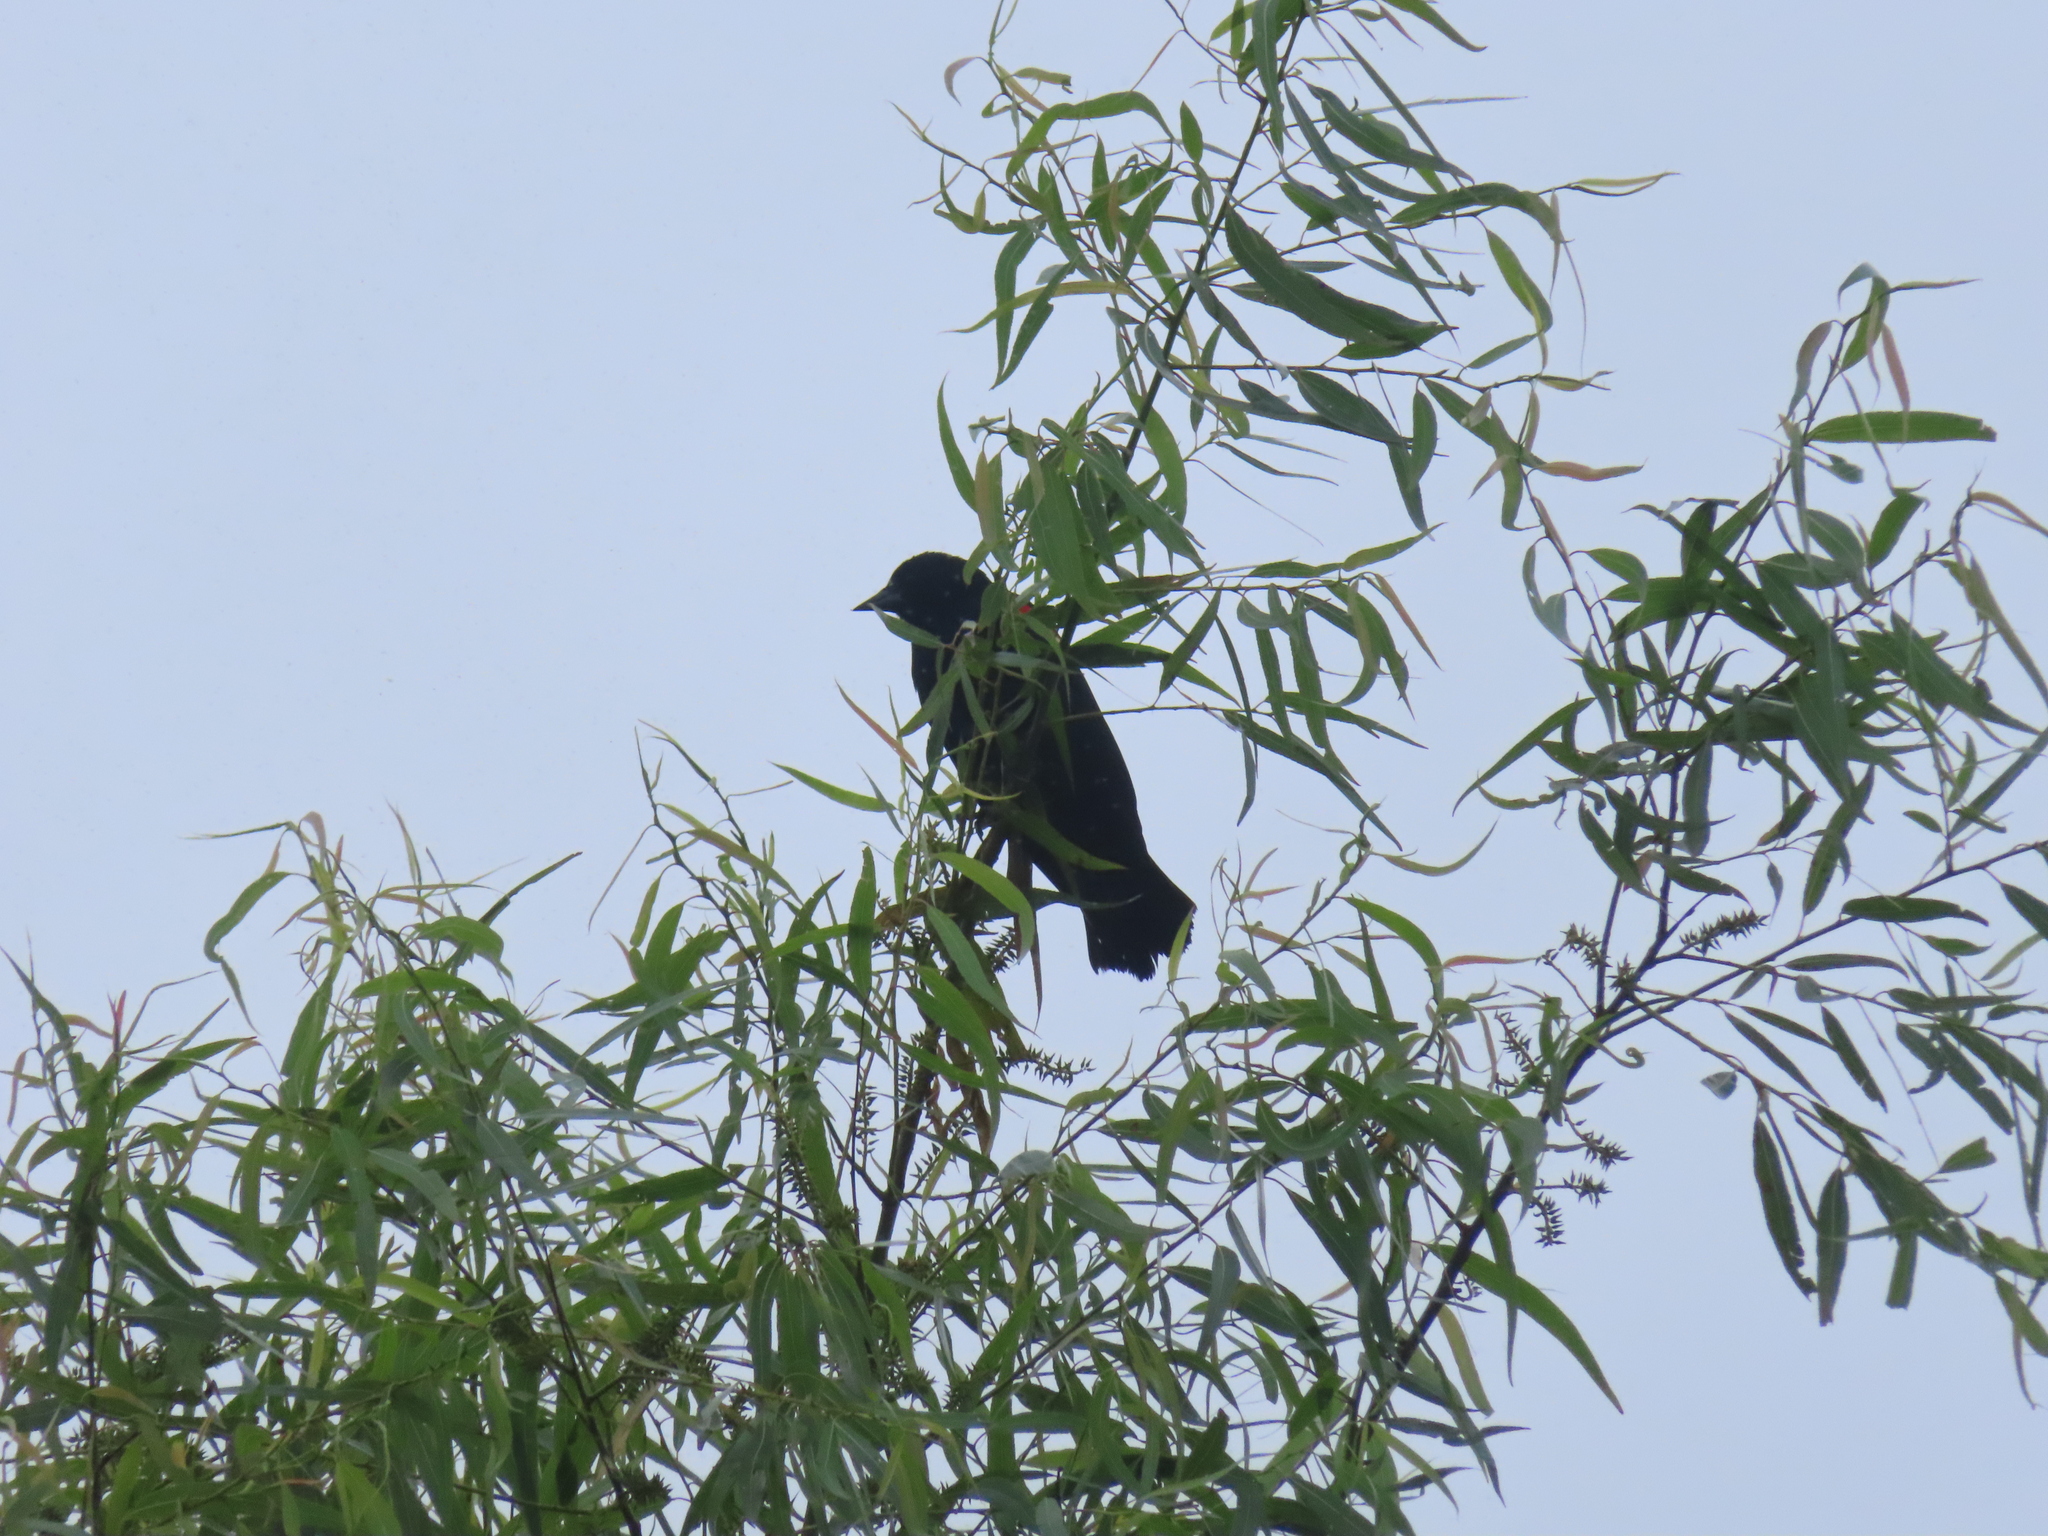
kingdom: Animalia
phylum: Chordata
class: Aves
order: Passeriformes
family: Icteridae
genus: Agelaius
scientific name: Agelaius phoeniceus
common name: Red-winged blackbird
